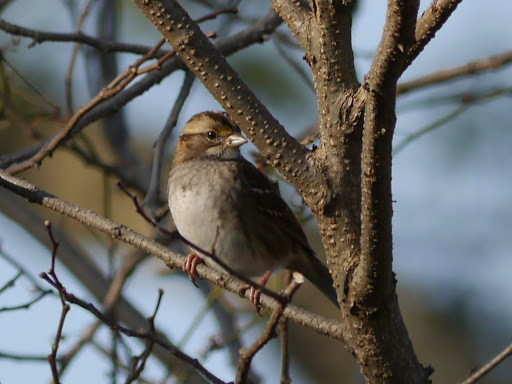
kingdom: Animalia
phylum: Chordata
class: Aves
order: Passeriformes
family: Passerellidae
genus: Zonotrichia
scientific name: Zonotrichia albicollis
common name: White-throated sparrow
